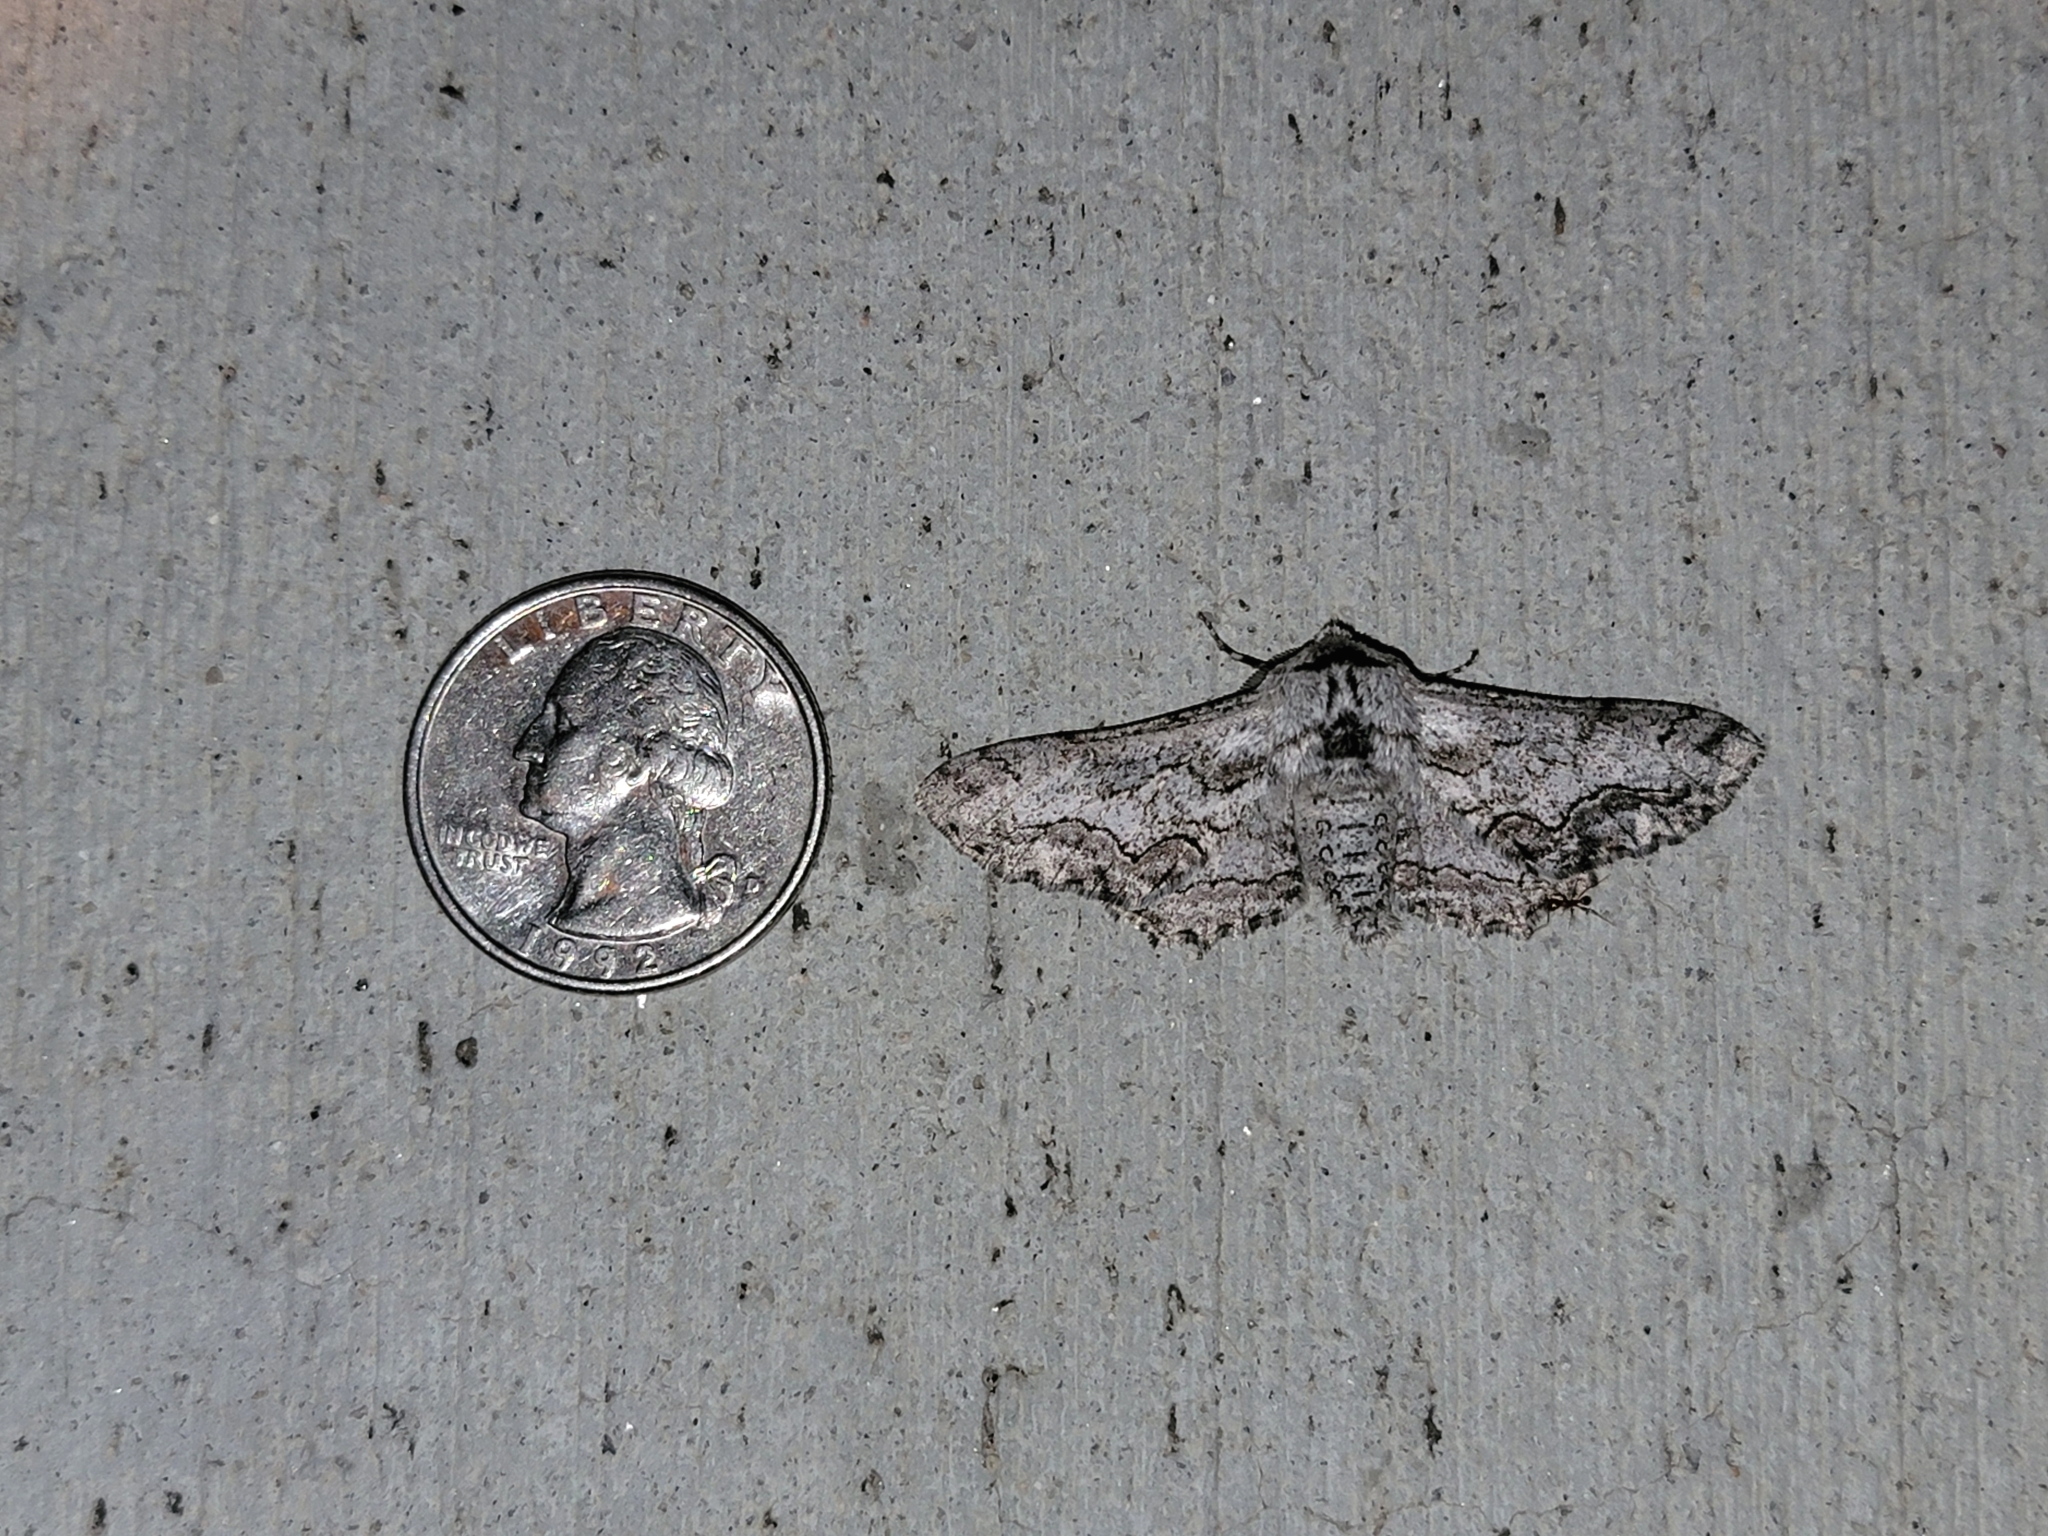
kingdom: Animalia
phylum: Arthropoda
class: Insecta
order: Lepidoptera
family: Geometridae
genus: Biston
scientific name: Biston sinuata
